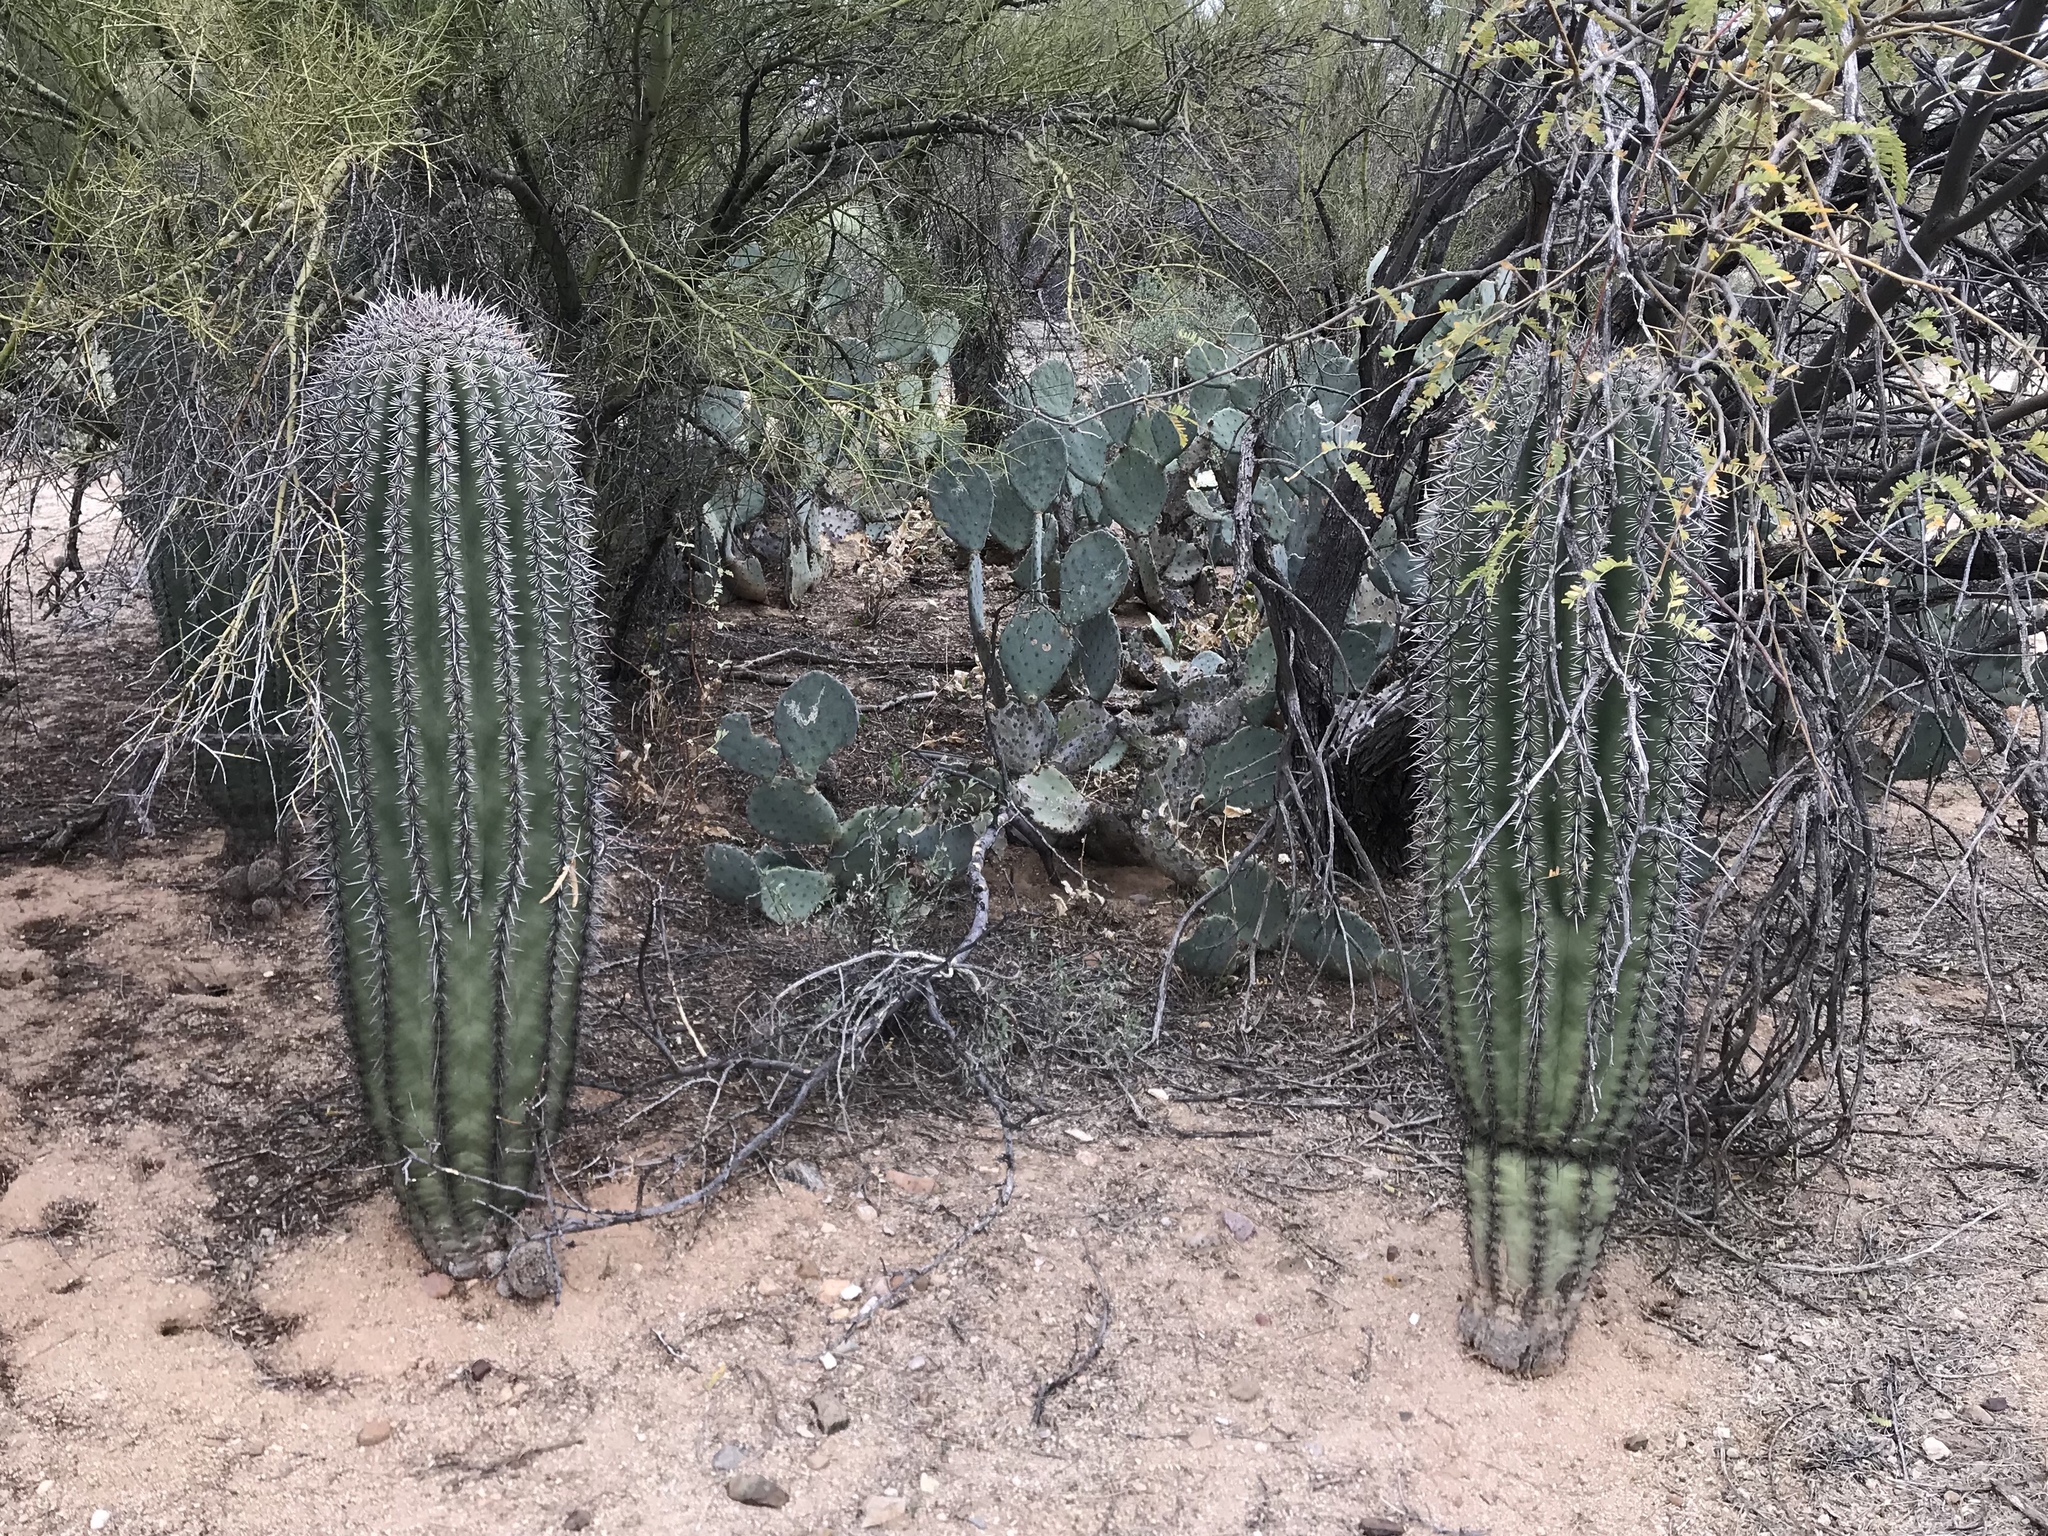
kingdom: Plantae
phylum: Tracheophyta
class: Magnoliopsida
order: Caryophyllales
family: Cactaceae
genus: Carnegiea
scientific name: Carnegiea gigantea
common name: Saguaro
